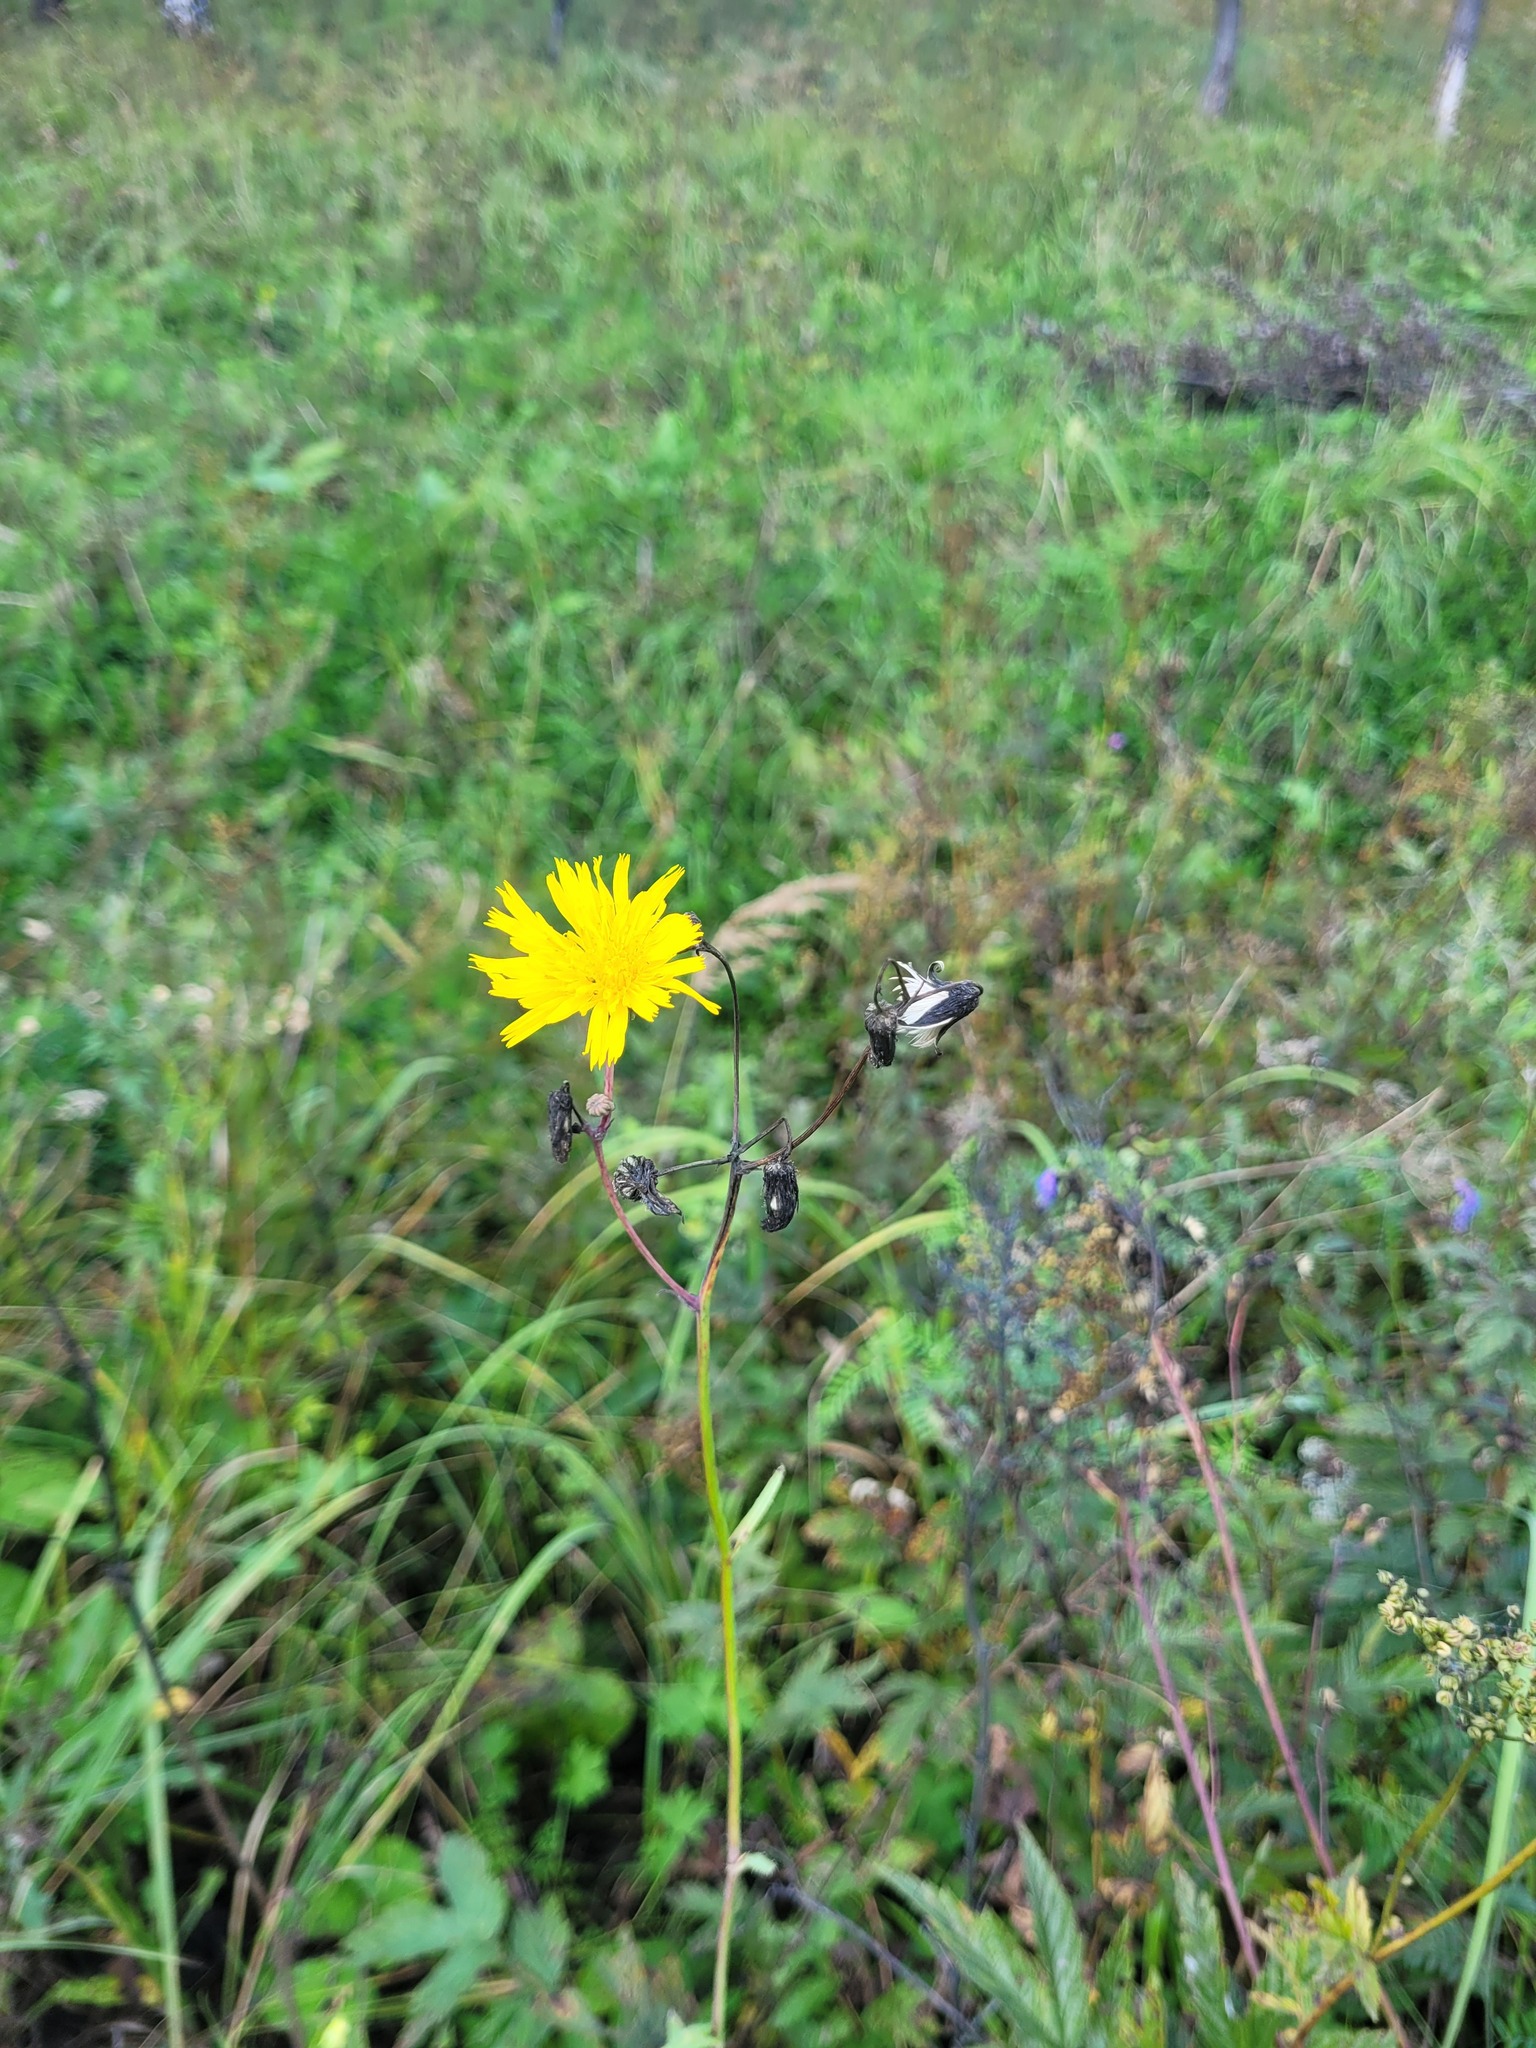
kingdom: Plantae
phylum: Tracheophyta
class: Magnoliopsida
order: Asterales
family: Asteraceae
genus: Sonchus
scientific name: Sonchus arvensis
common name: Perennial sow-thistle
